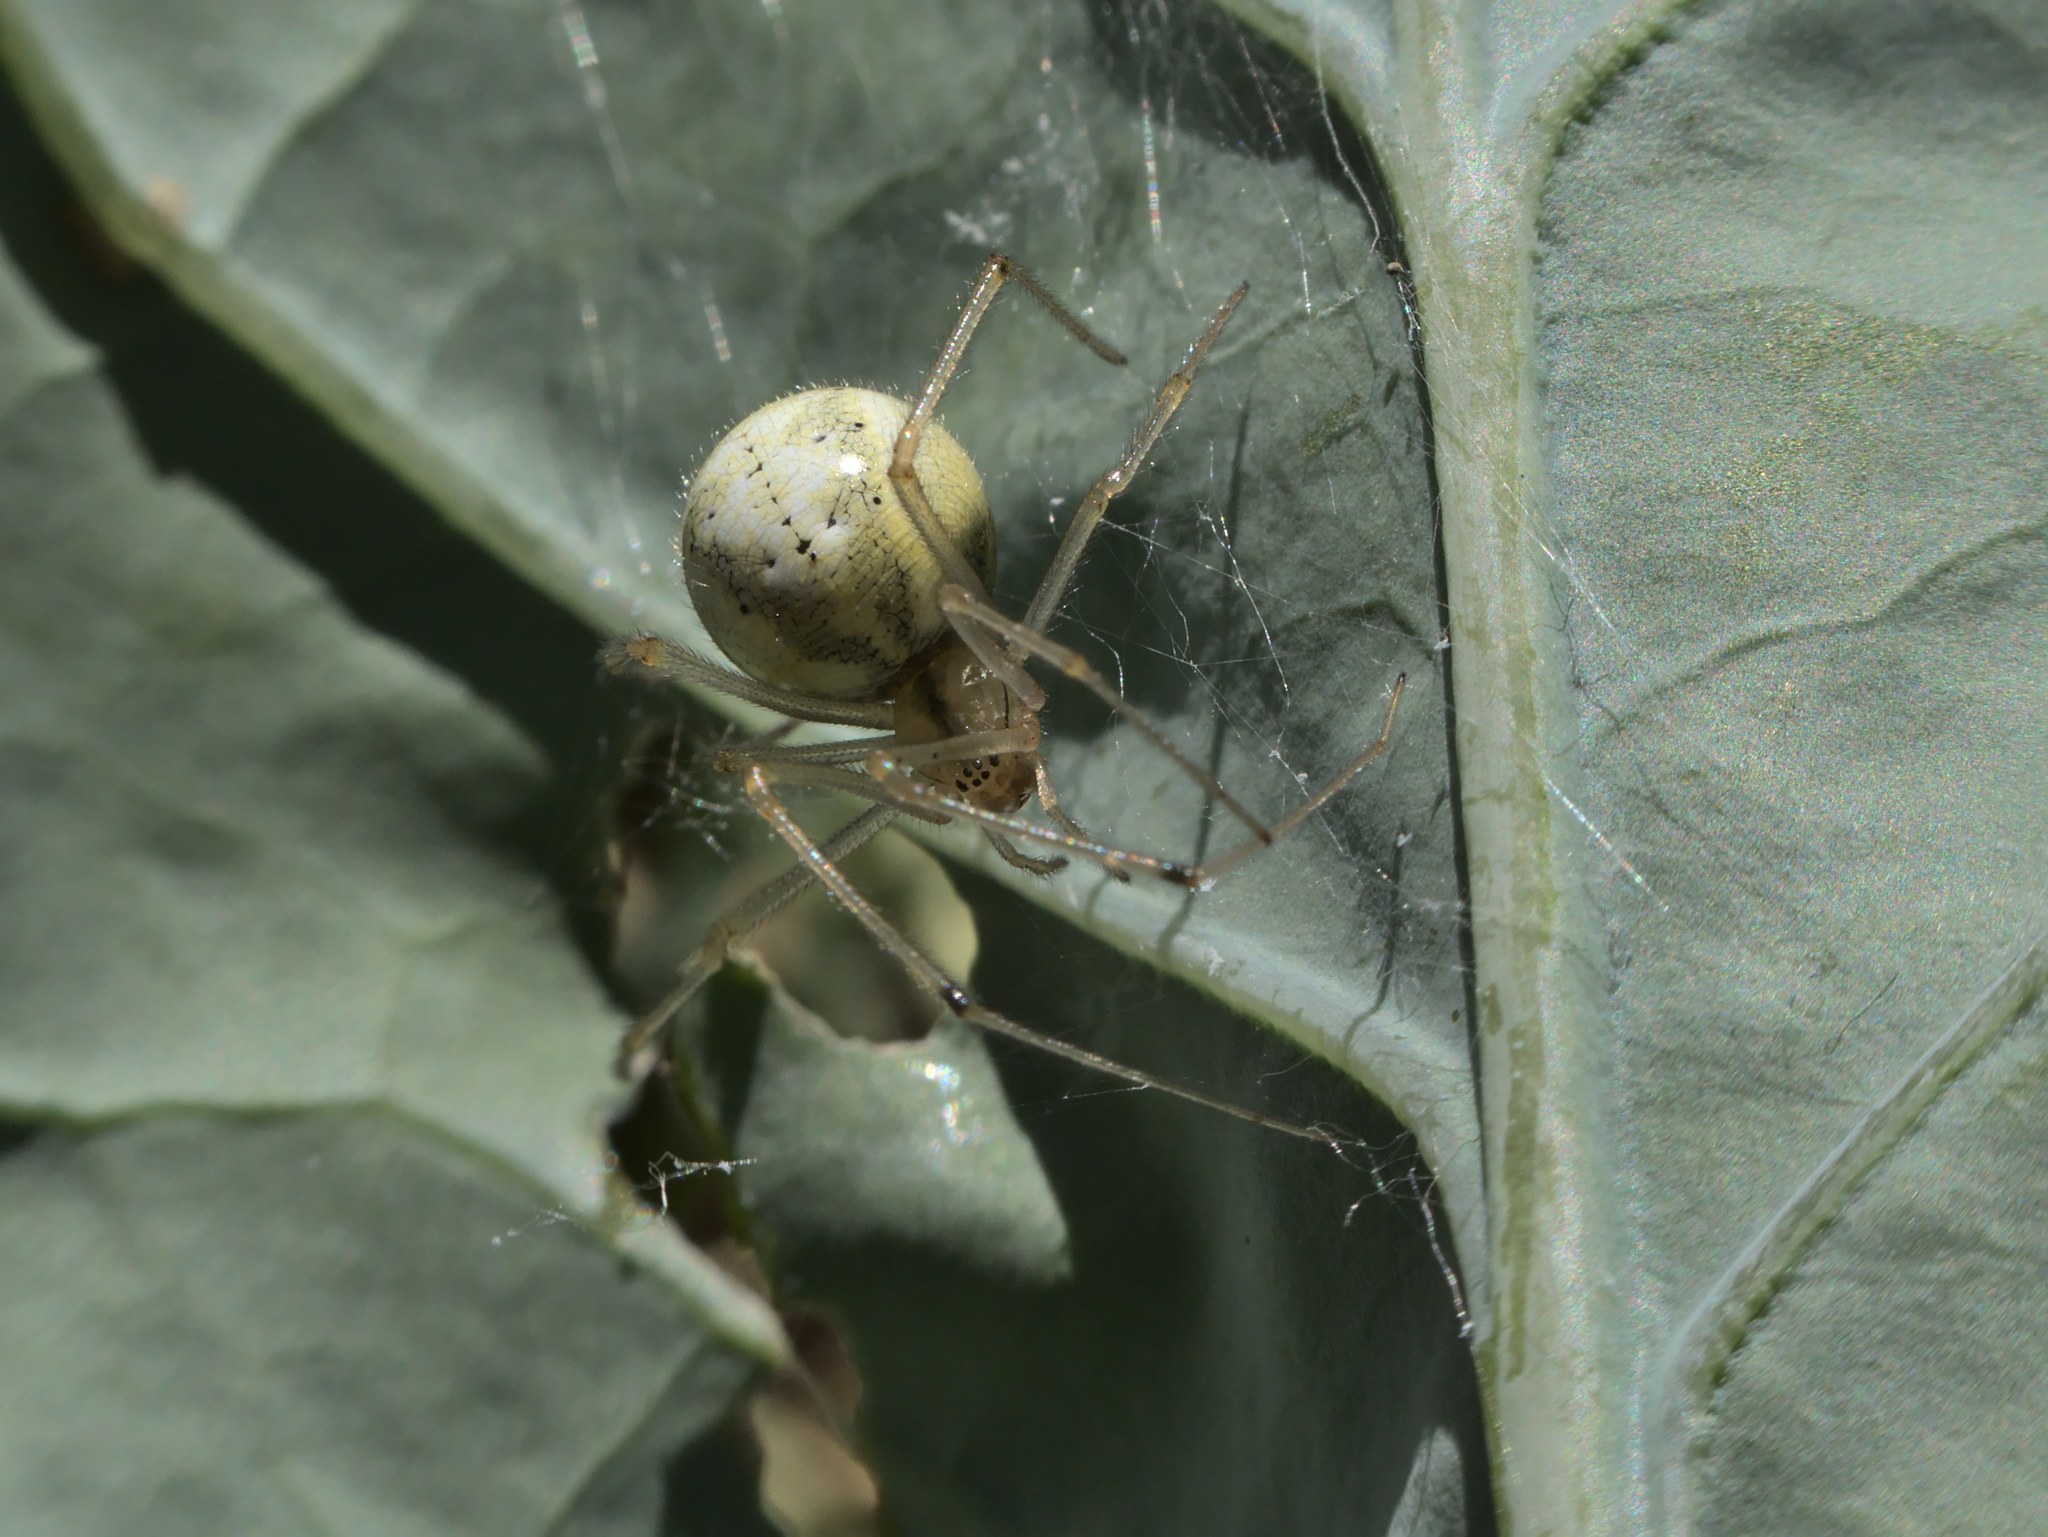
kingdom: Animalia
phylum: Arthropoda
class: Arachnida
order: Araneae
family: Theridiidae
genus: Enoplognatha
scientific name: Enoplognatha ovata
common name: Common candy-striped spider
